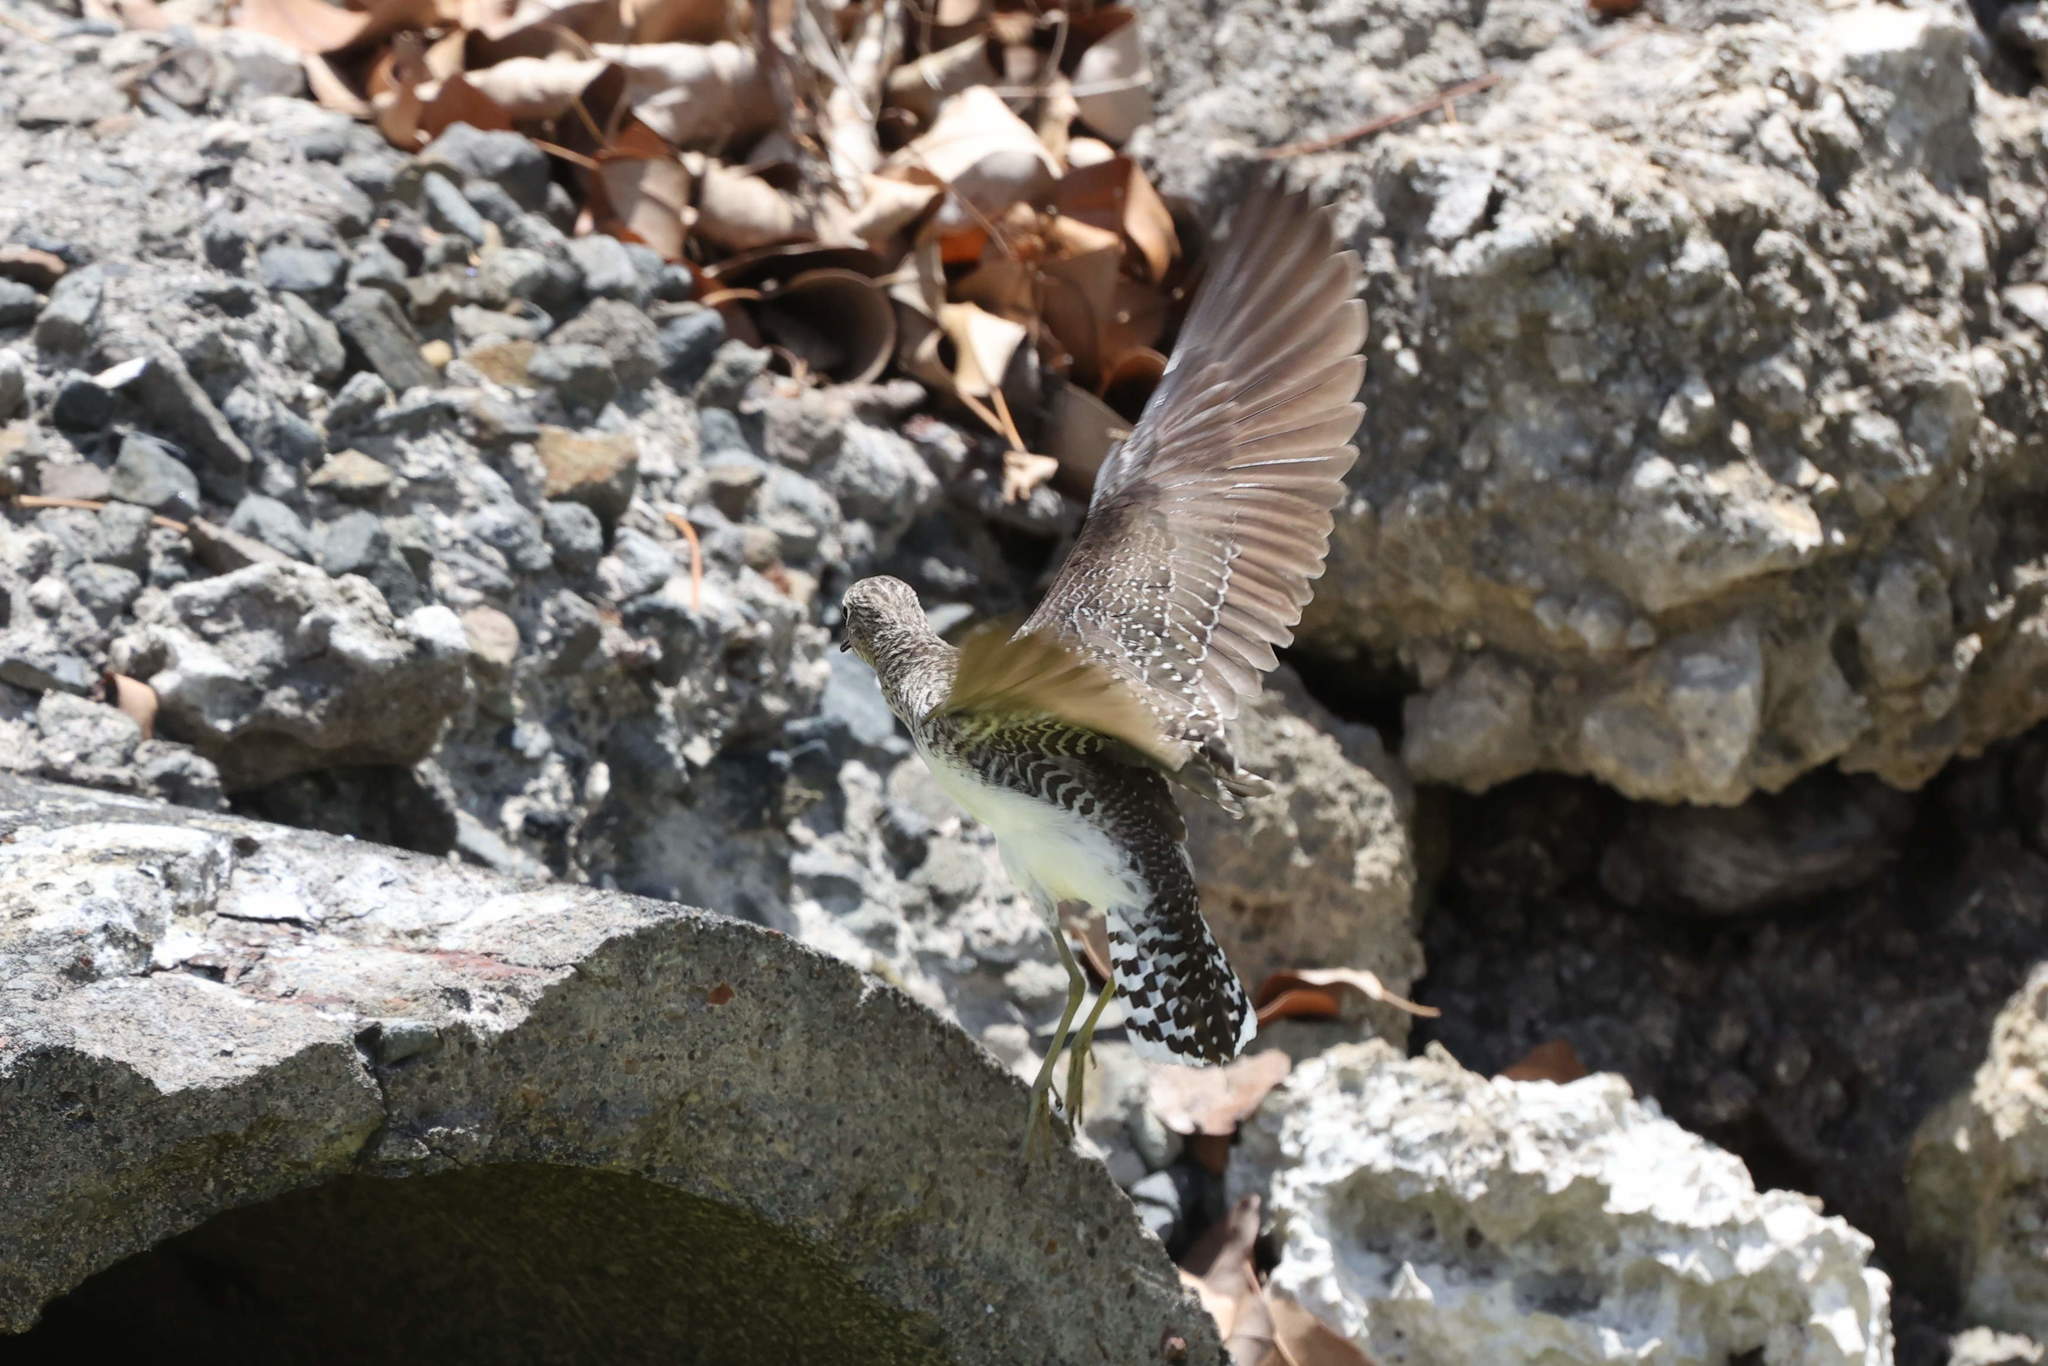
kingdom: Animalia
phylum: Chordata
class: Aves
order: Charadriiformes
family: Scolopacidae
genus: Tringa
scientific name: Tringa solitaria
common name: Solitary sandpiper
